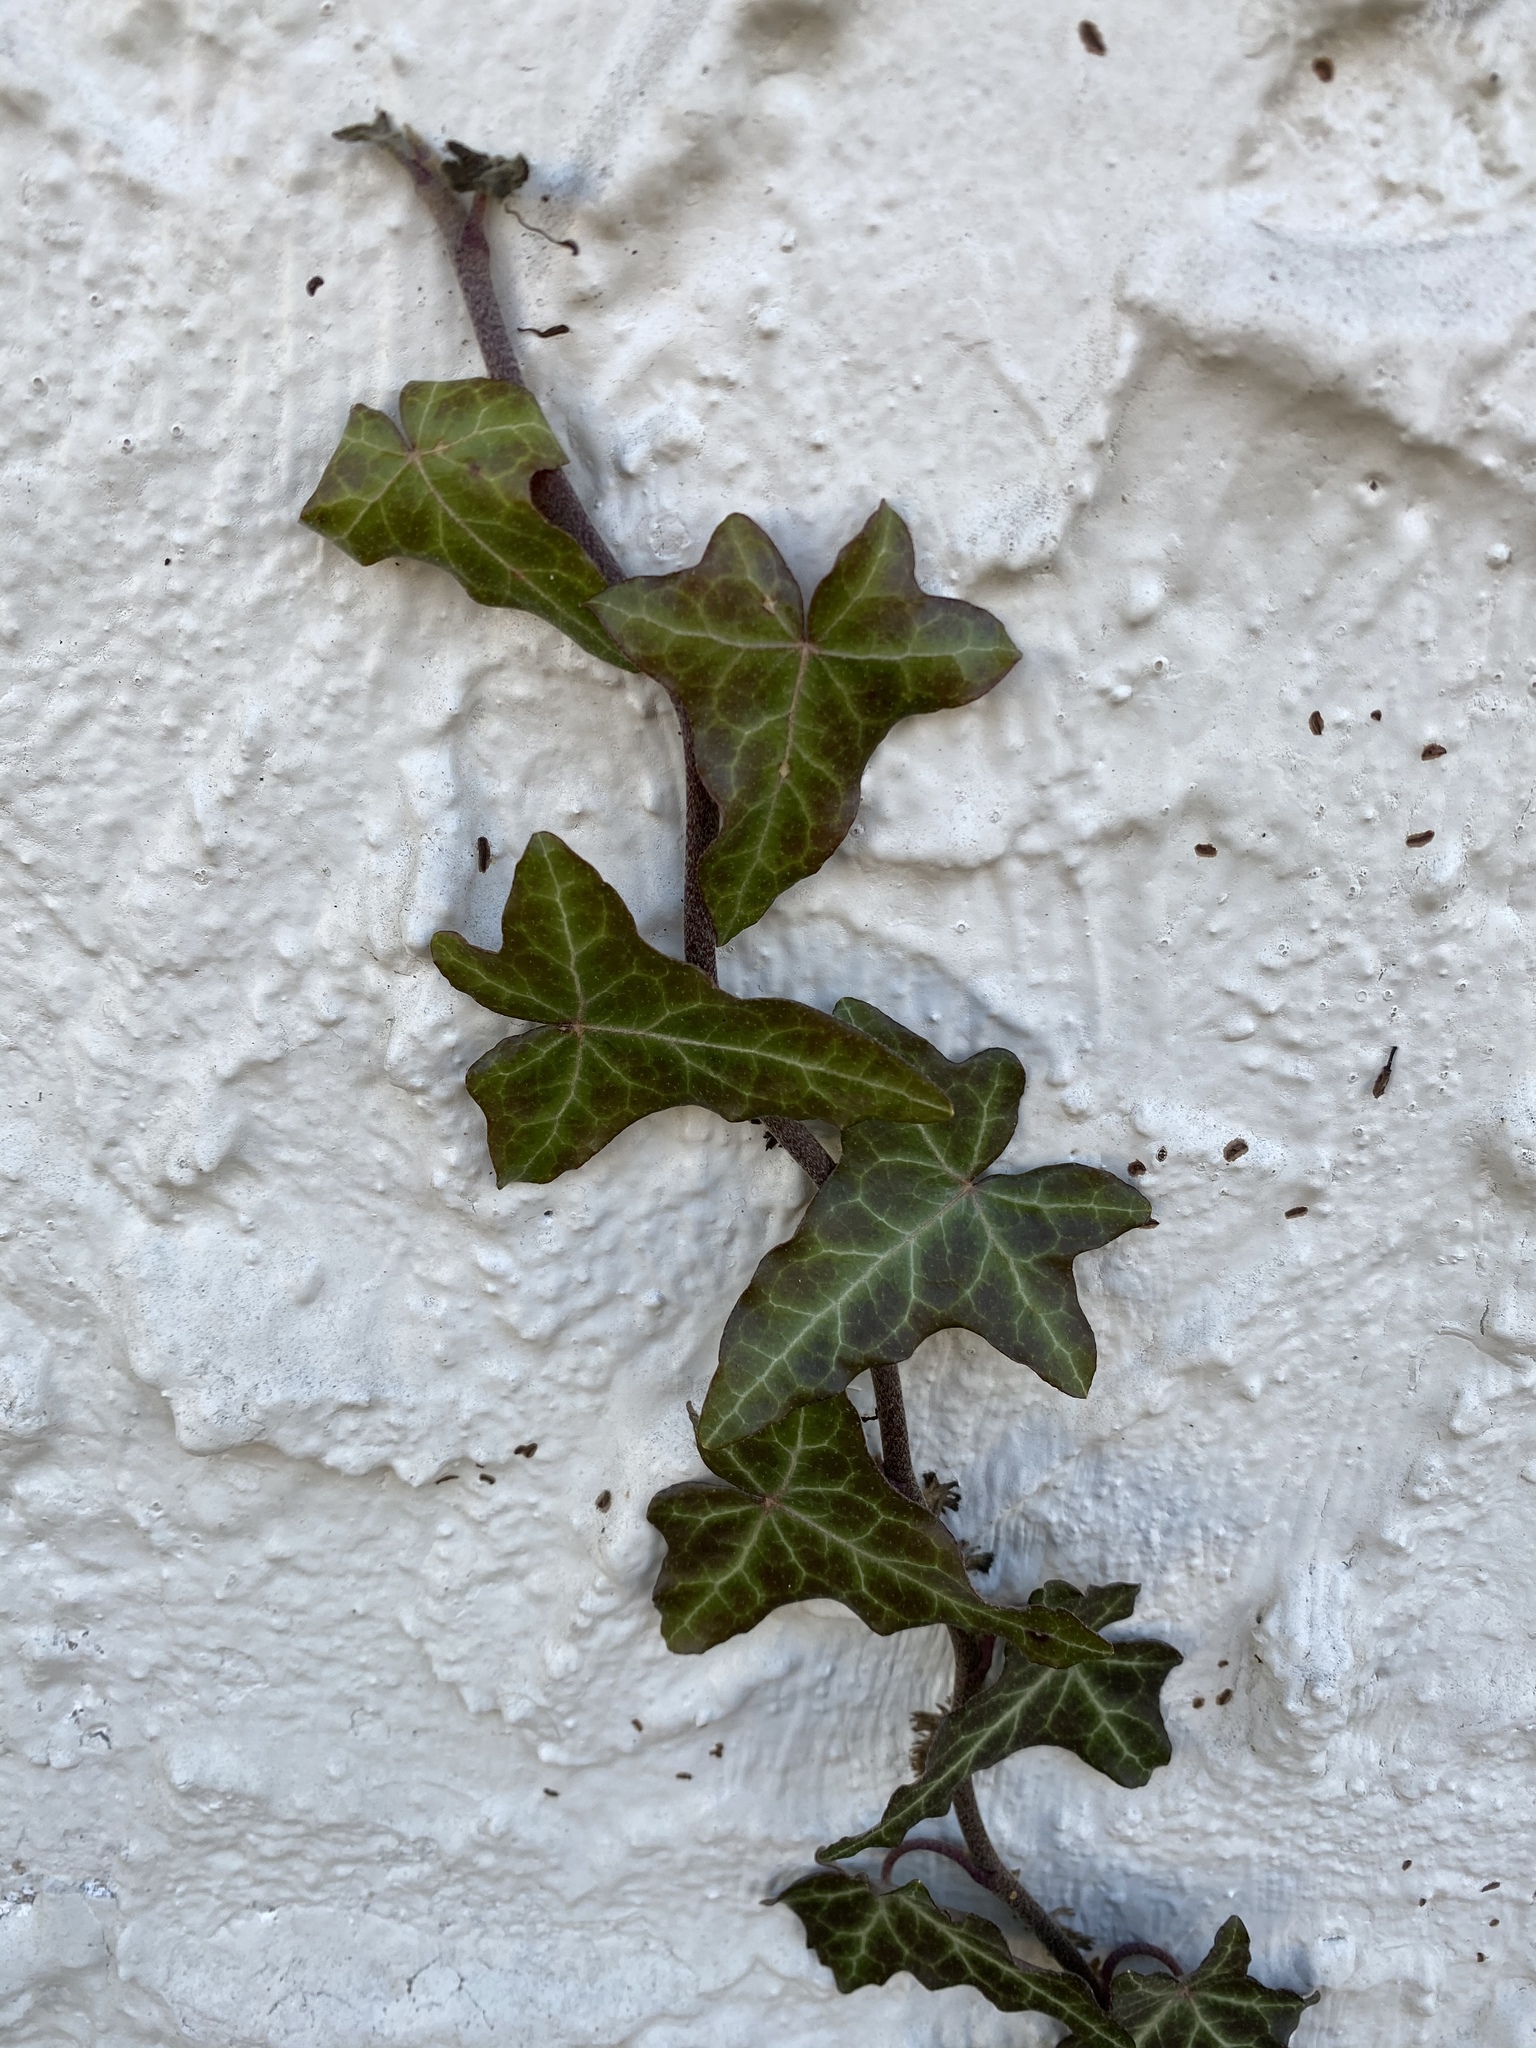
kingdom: Plantae
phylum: Tracheophyta
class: Magnoliopsida
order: Apiales
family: Araliaceae
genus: Hedera
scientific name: Hedera
